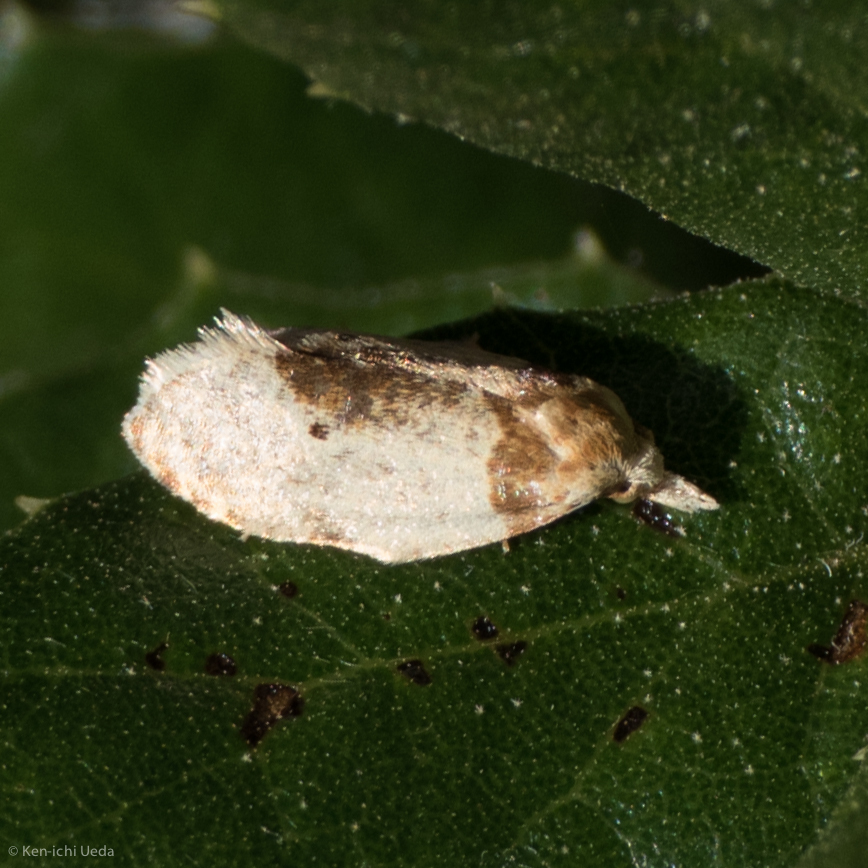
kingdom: Animalia
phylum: Arthropoda
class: Insecta
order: Lepidoptera
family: Tortricidae
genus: Henricus
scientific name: Henricus umbrabasana
